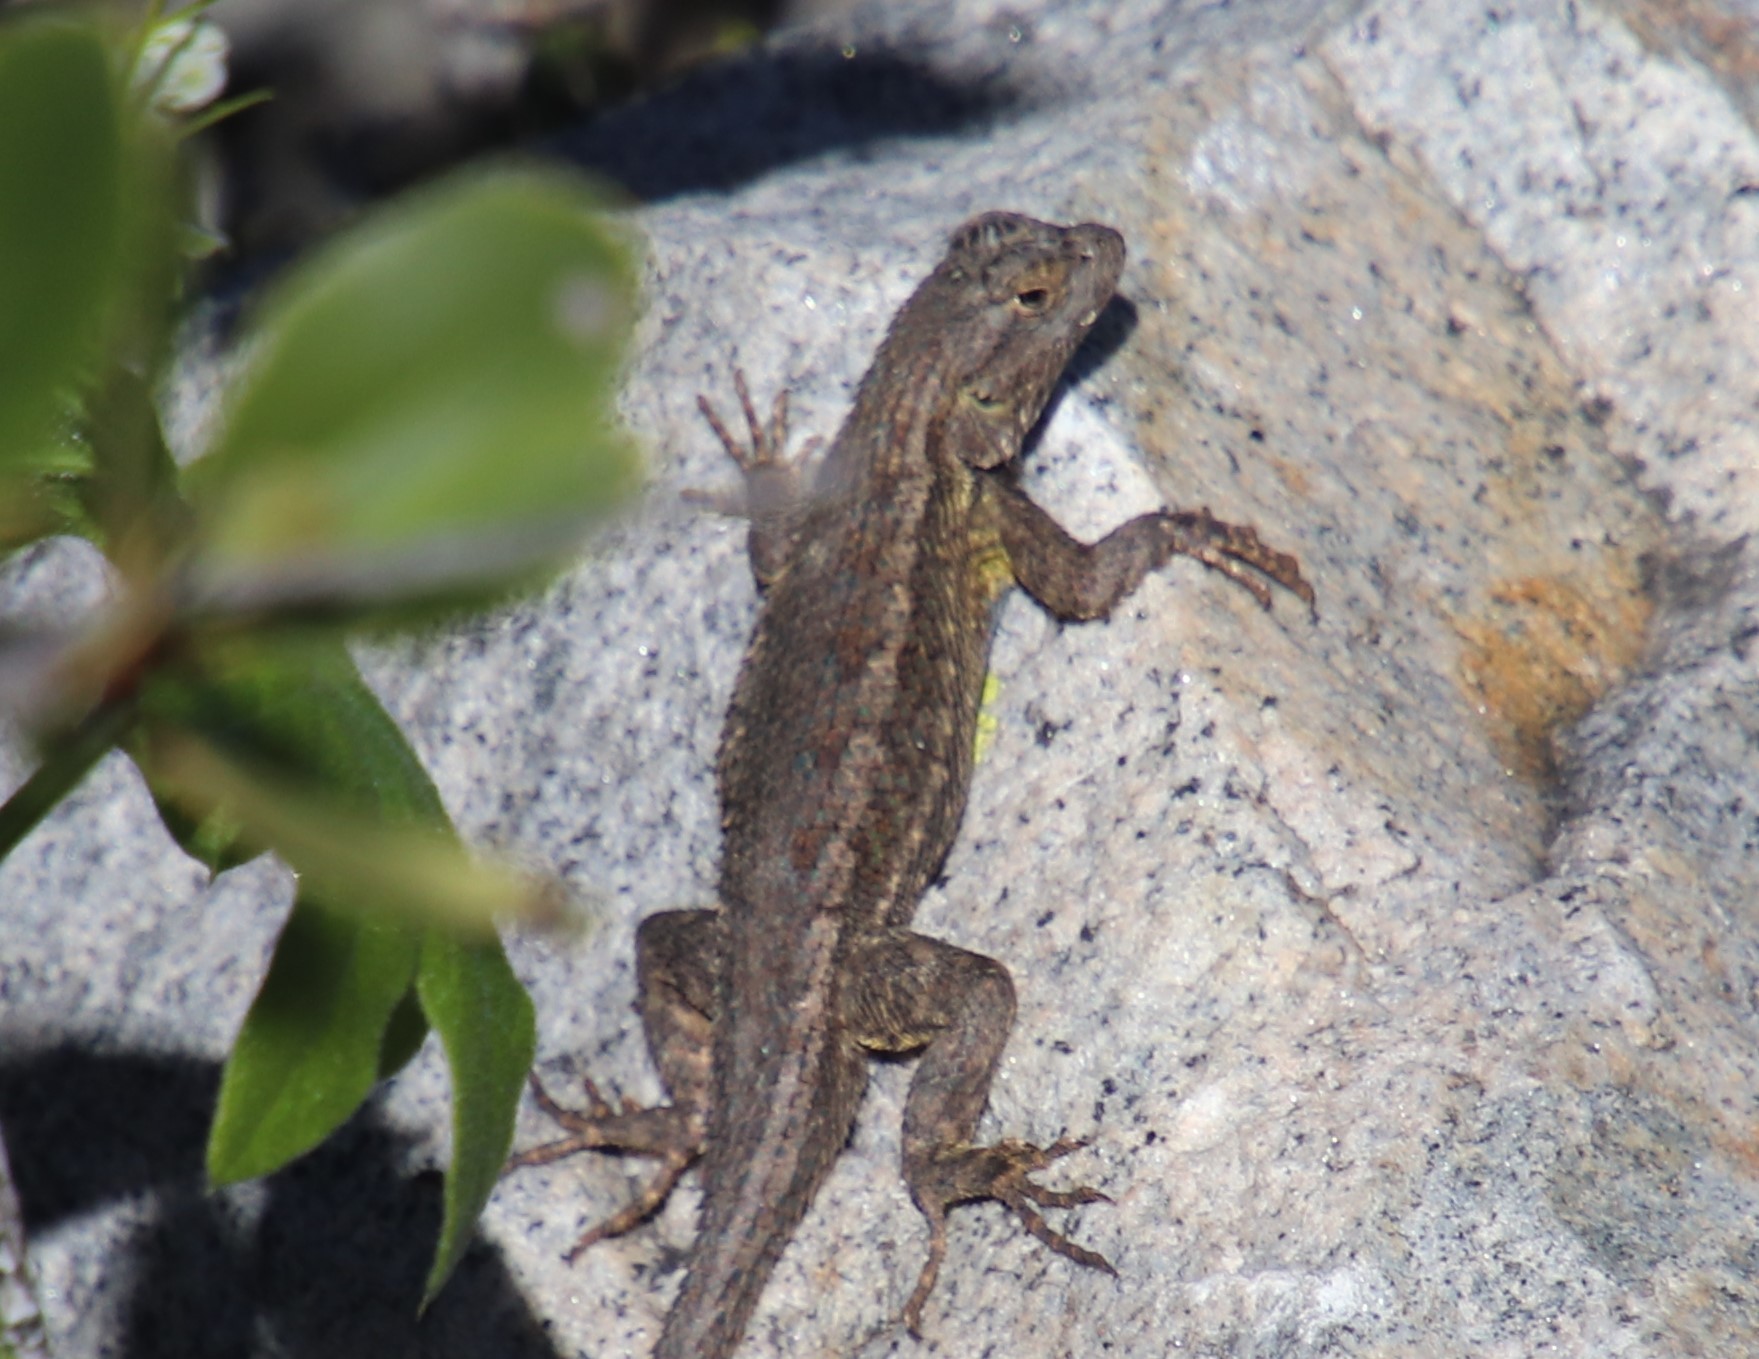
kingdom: Animalia
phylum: Chordata
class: Squamata
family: Phrynosomatidae
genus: Sceloporus
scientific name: Sceloporus occidentalis
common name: Western fence lizard
